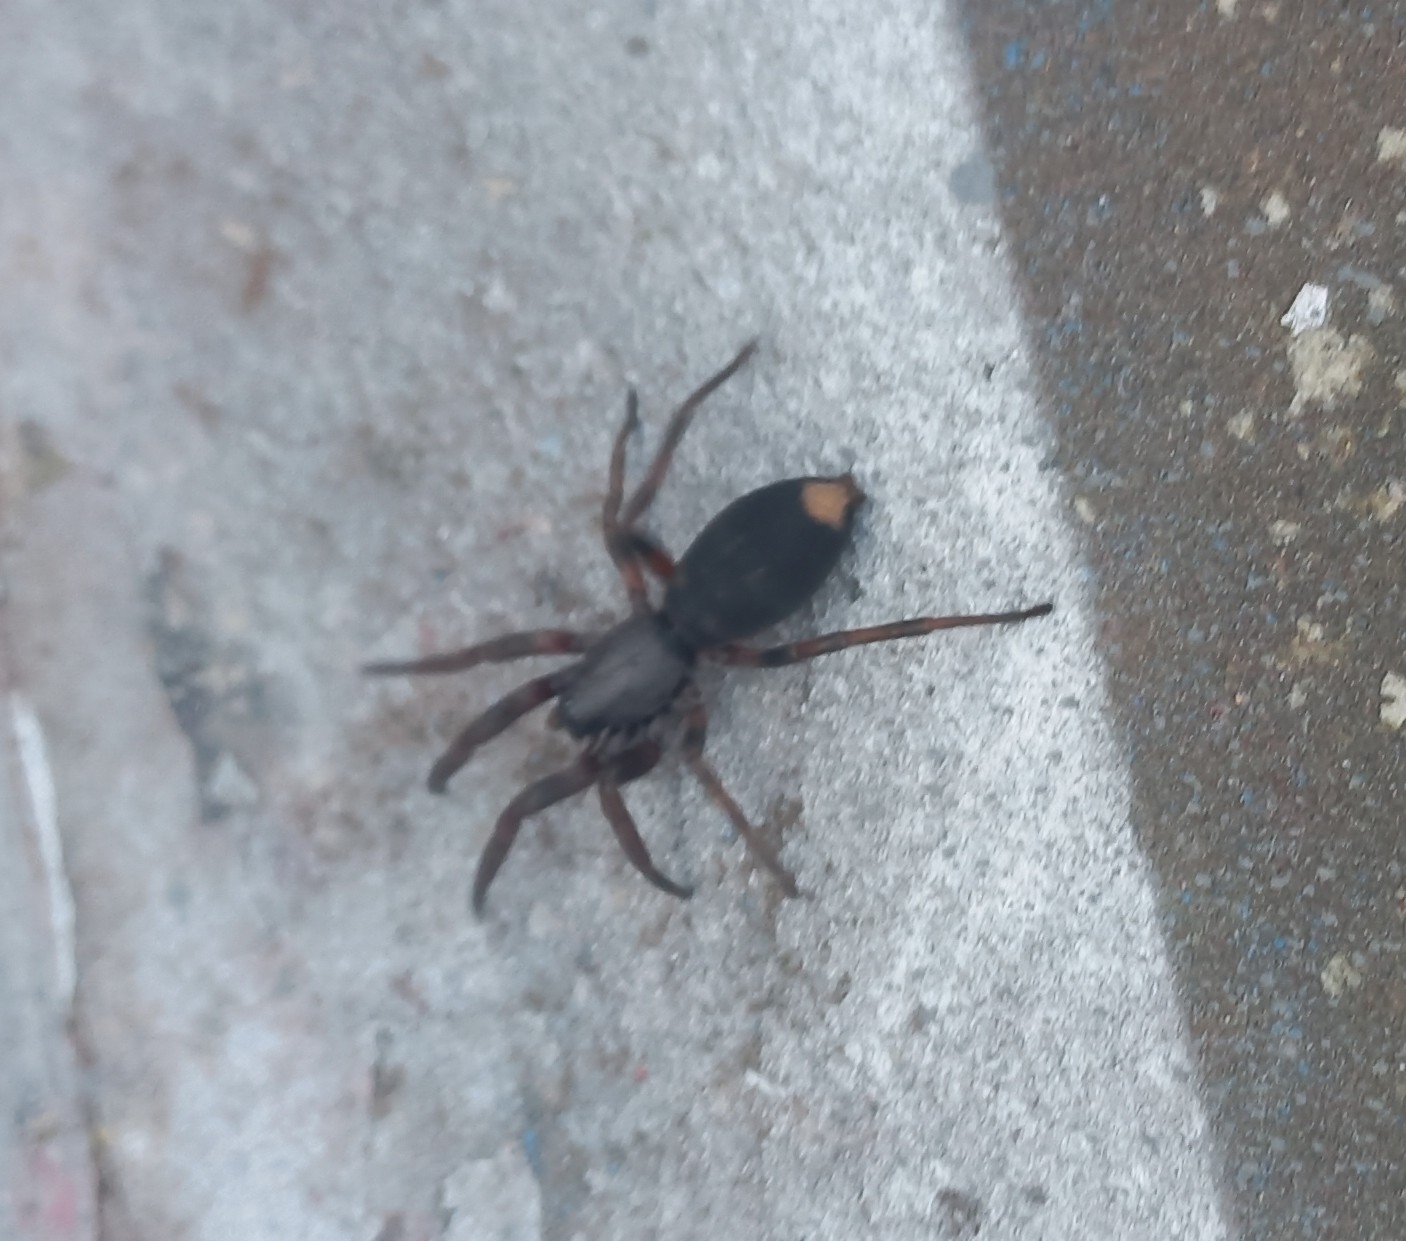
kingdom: Animalia
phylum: Arthropoda
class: Arachnida
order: Araneae
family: Lamponidae
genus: Lampona
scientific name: Lampona cylindrata
